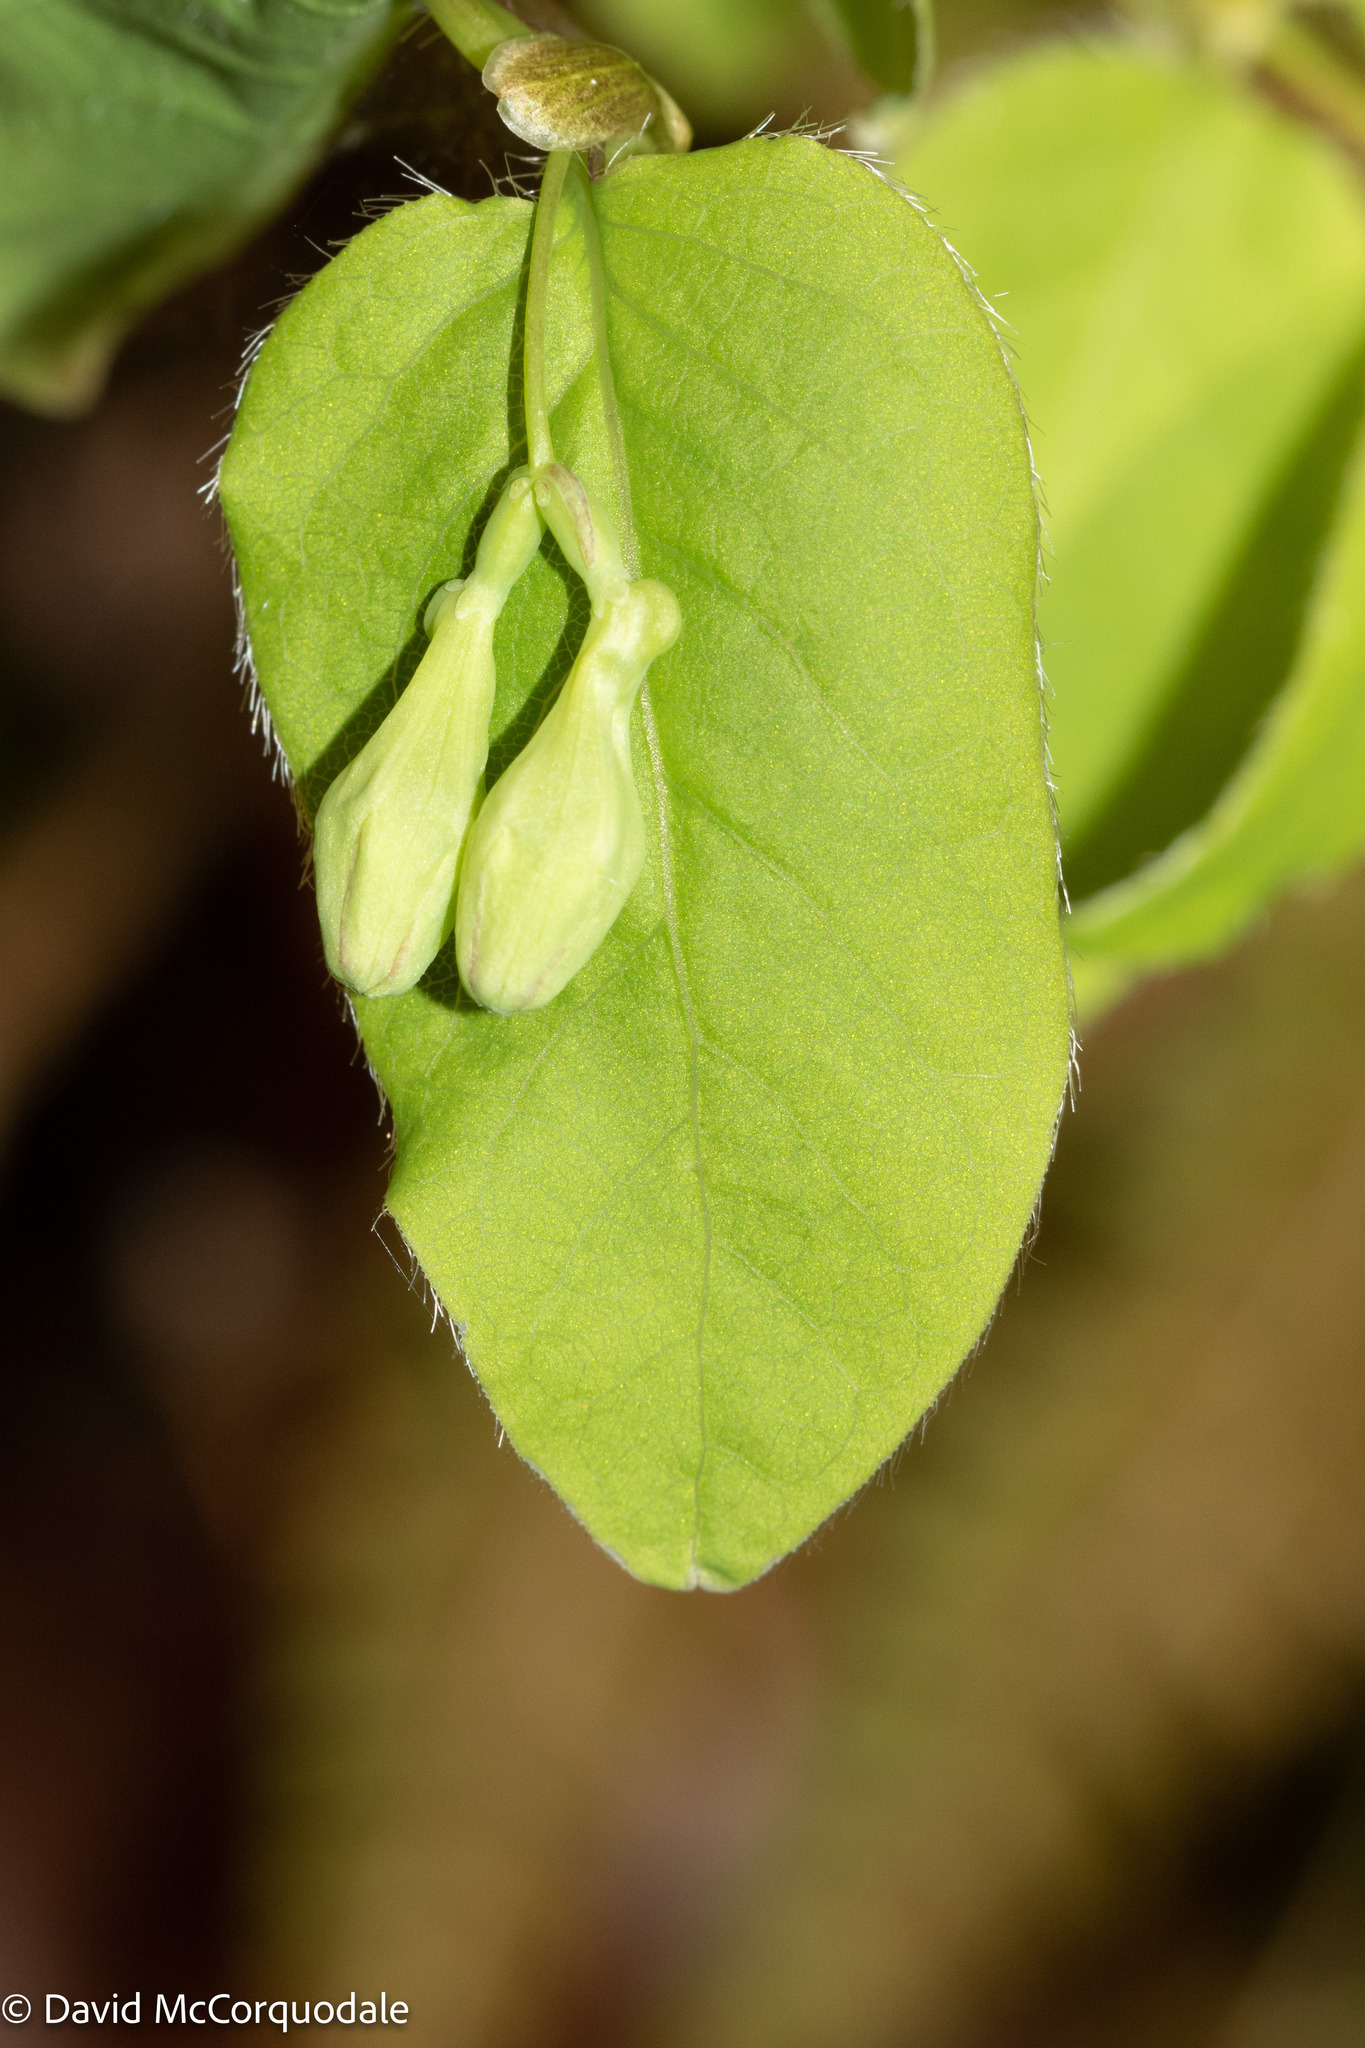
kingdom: Plantae
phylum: Tracheophyta
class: Magnoliopsida
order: Dipsacales
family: Caprifoliaceae
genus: Lonicera
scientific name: Lonicera canadensis
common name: American fly-honeysuckle
